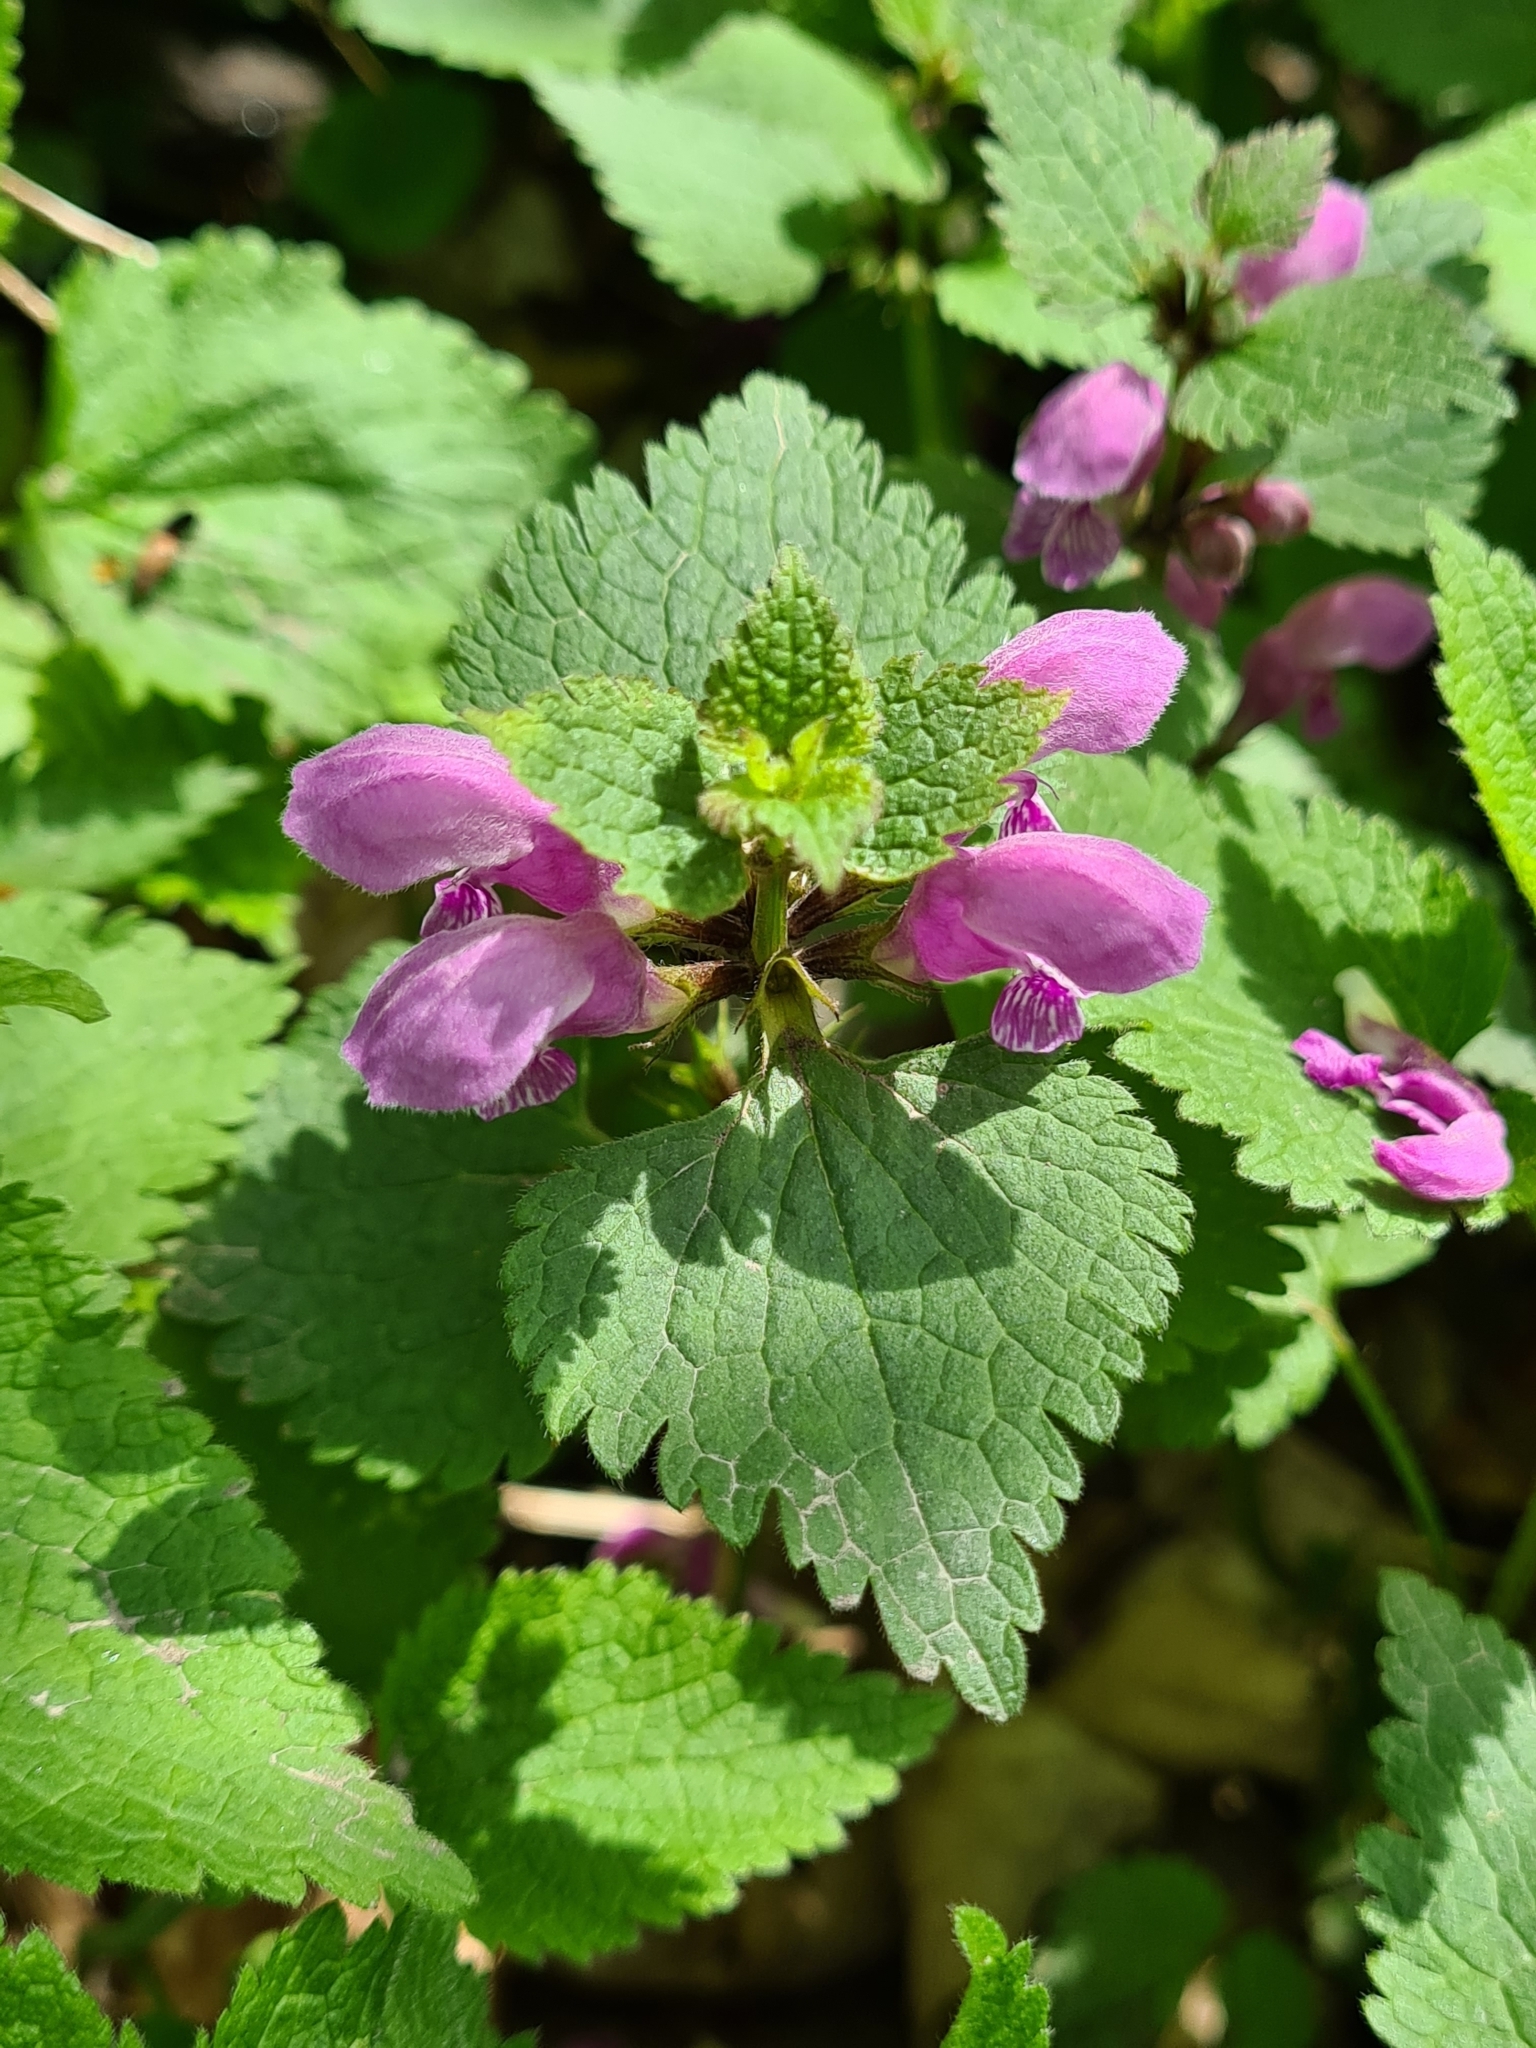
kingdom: Plantae
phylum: Tracheophyta
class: Magnoliopsida
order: Lamiales
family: Lamiaceae
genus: Lamium
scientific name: Lamium maculatum
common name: Spotted dead-nettle
